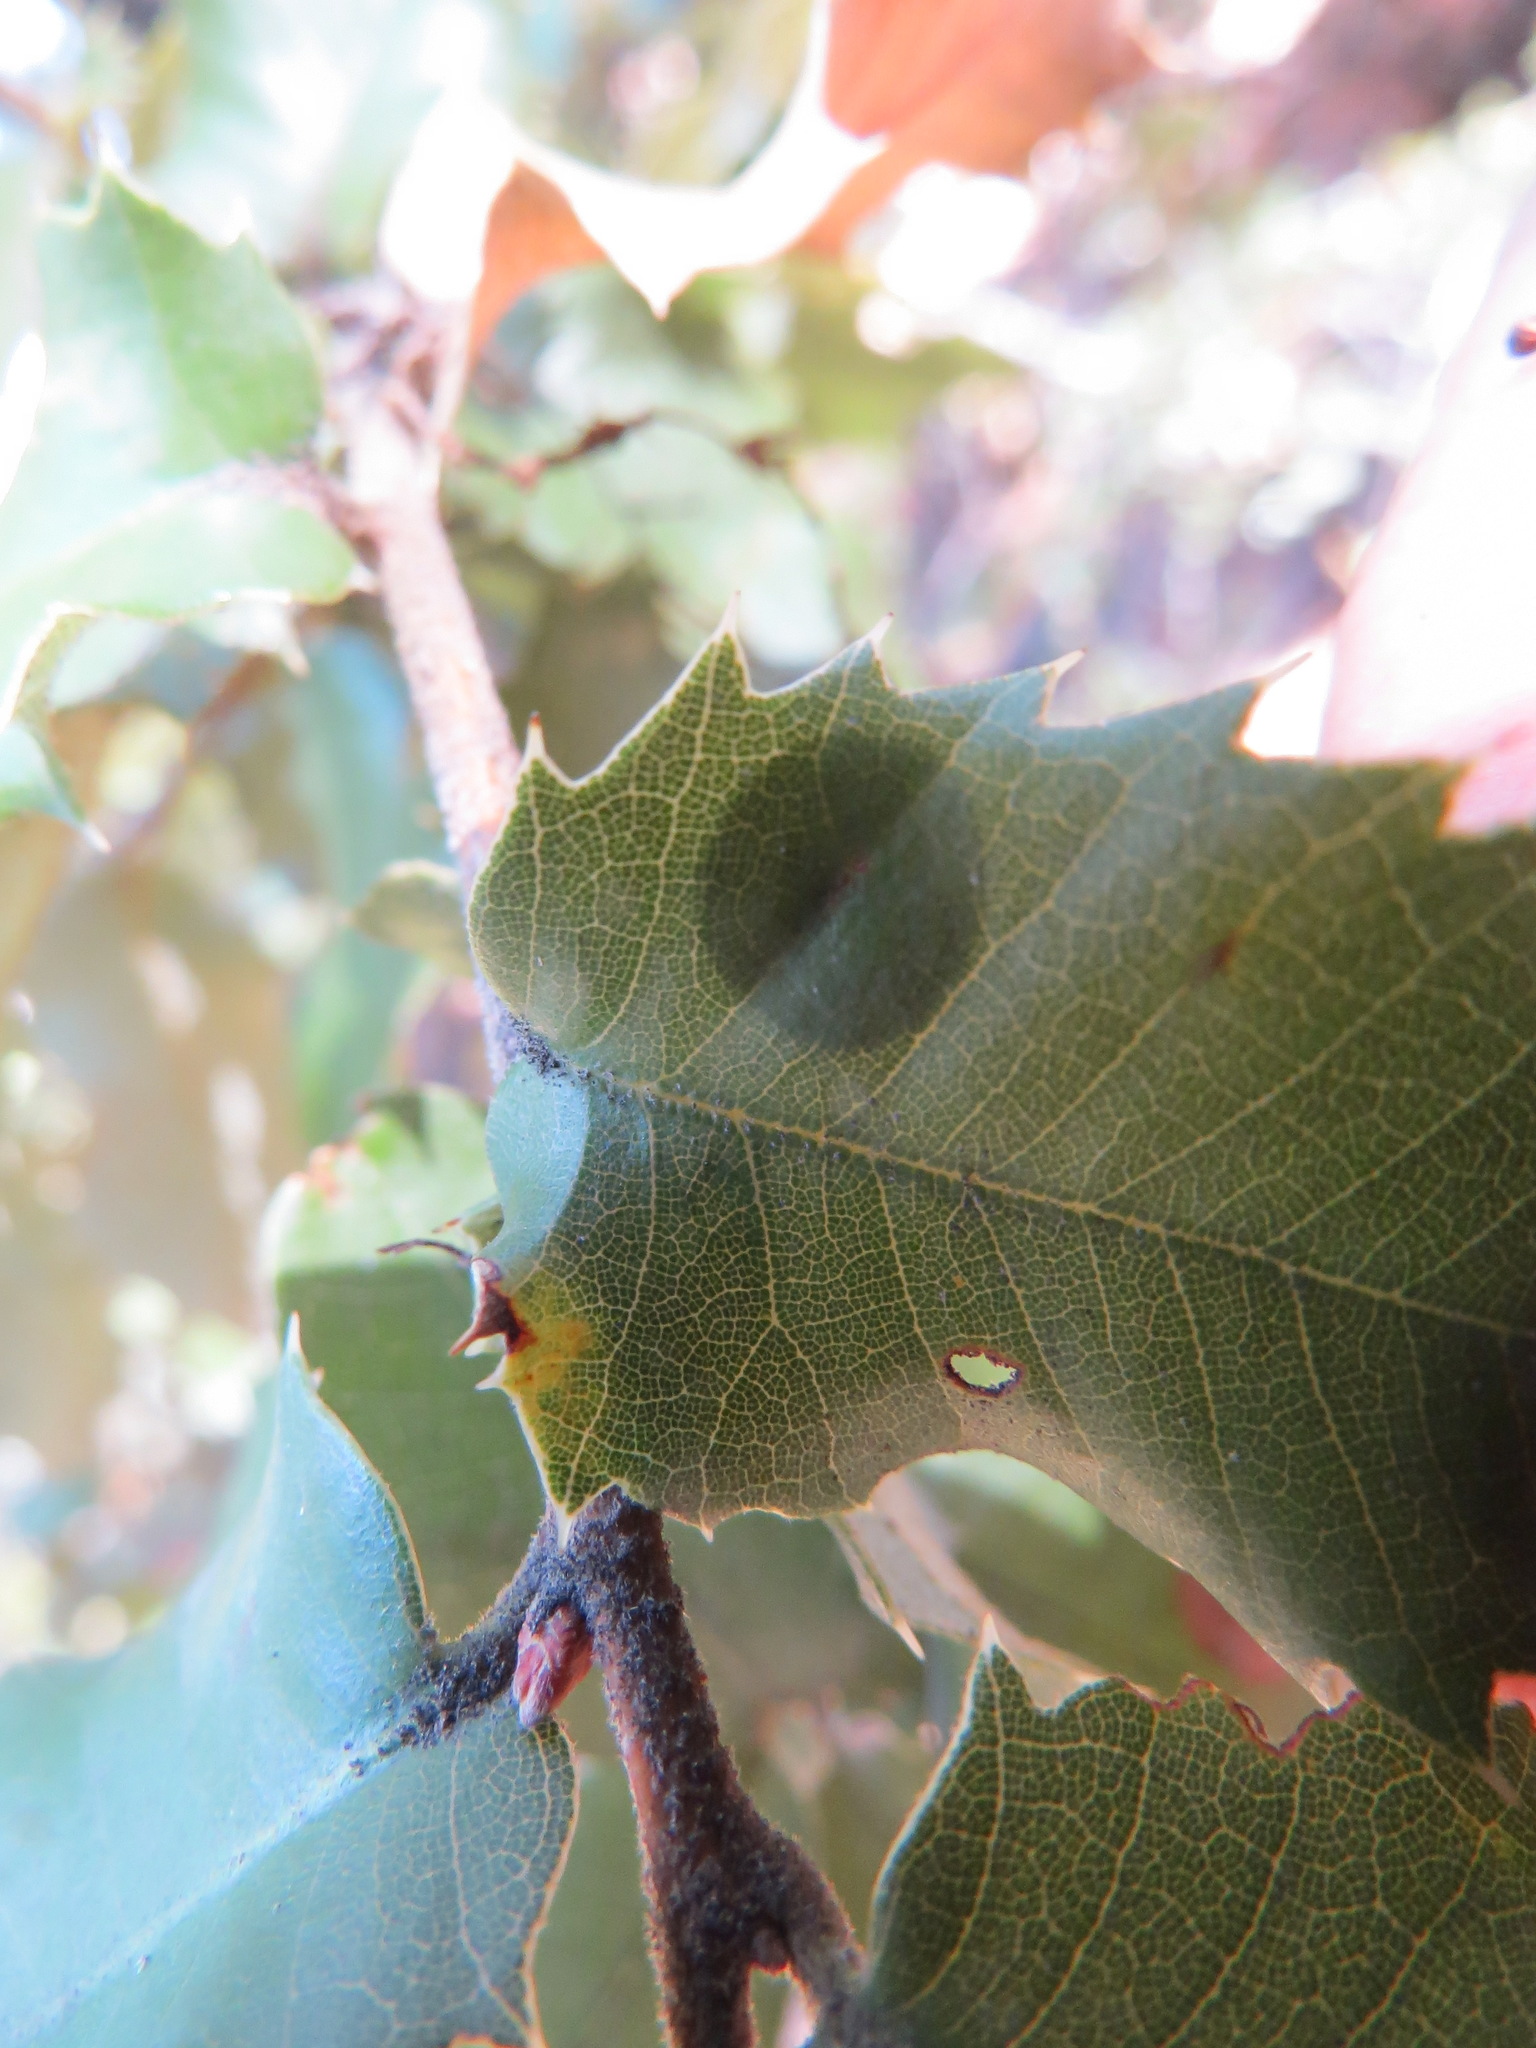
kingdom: Animalia
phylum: Arthropoda
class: Insecta
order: Hymenoptera
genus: Paracraspis
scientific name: Paracraspis
